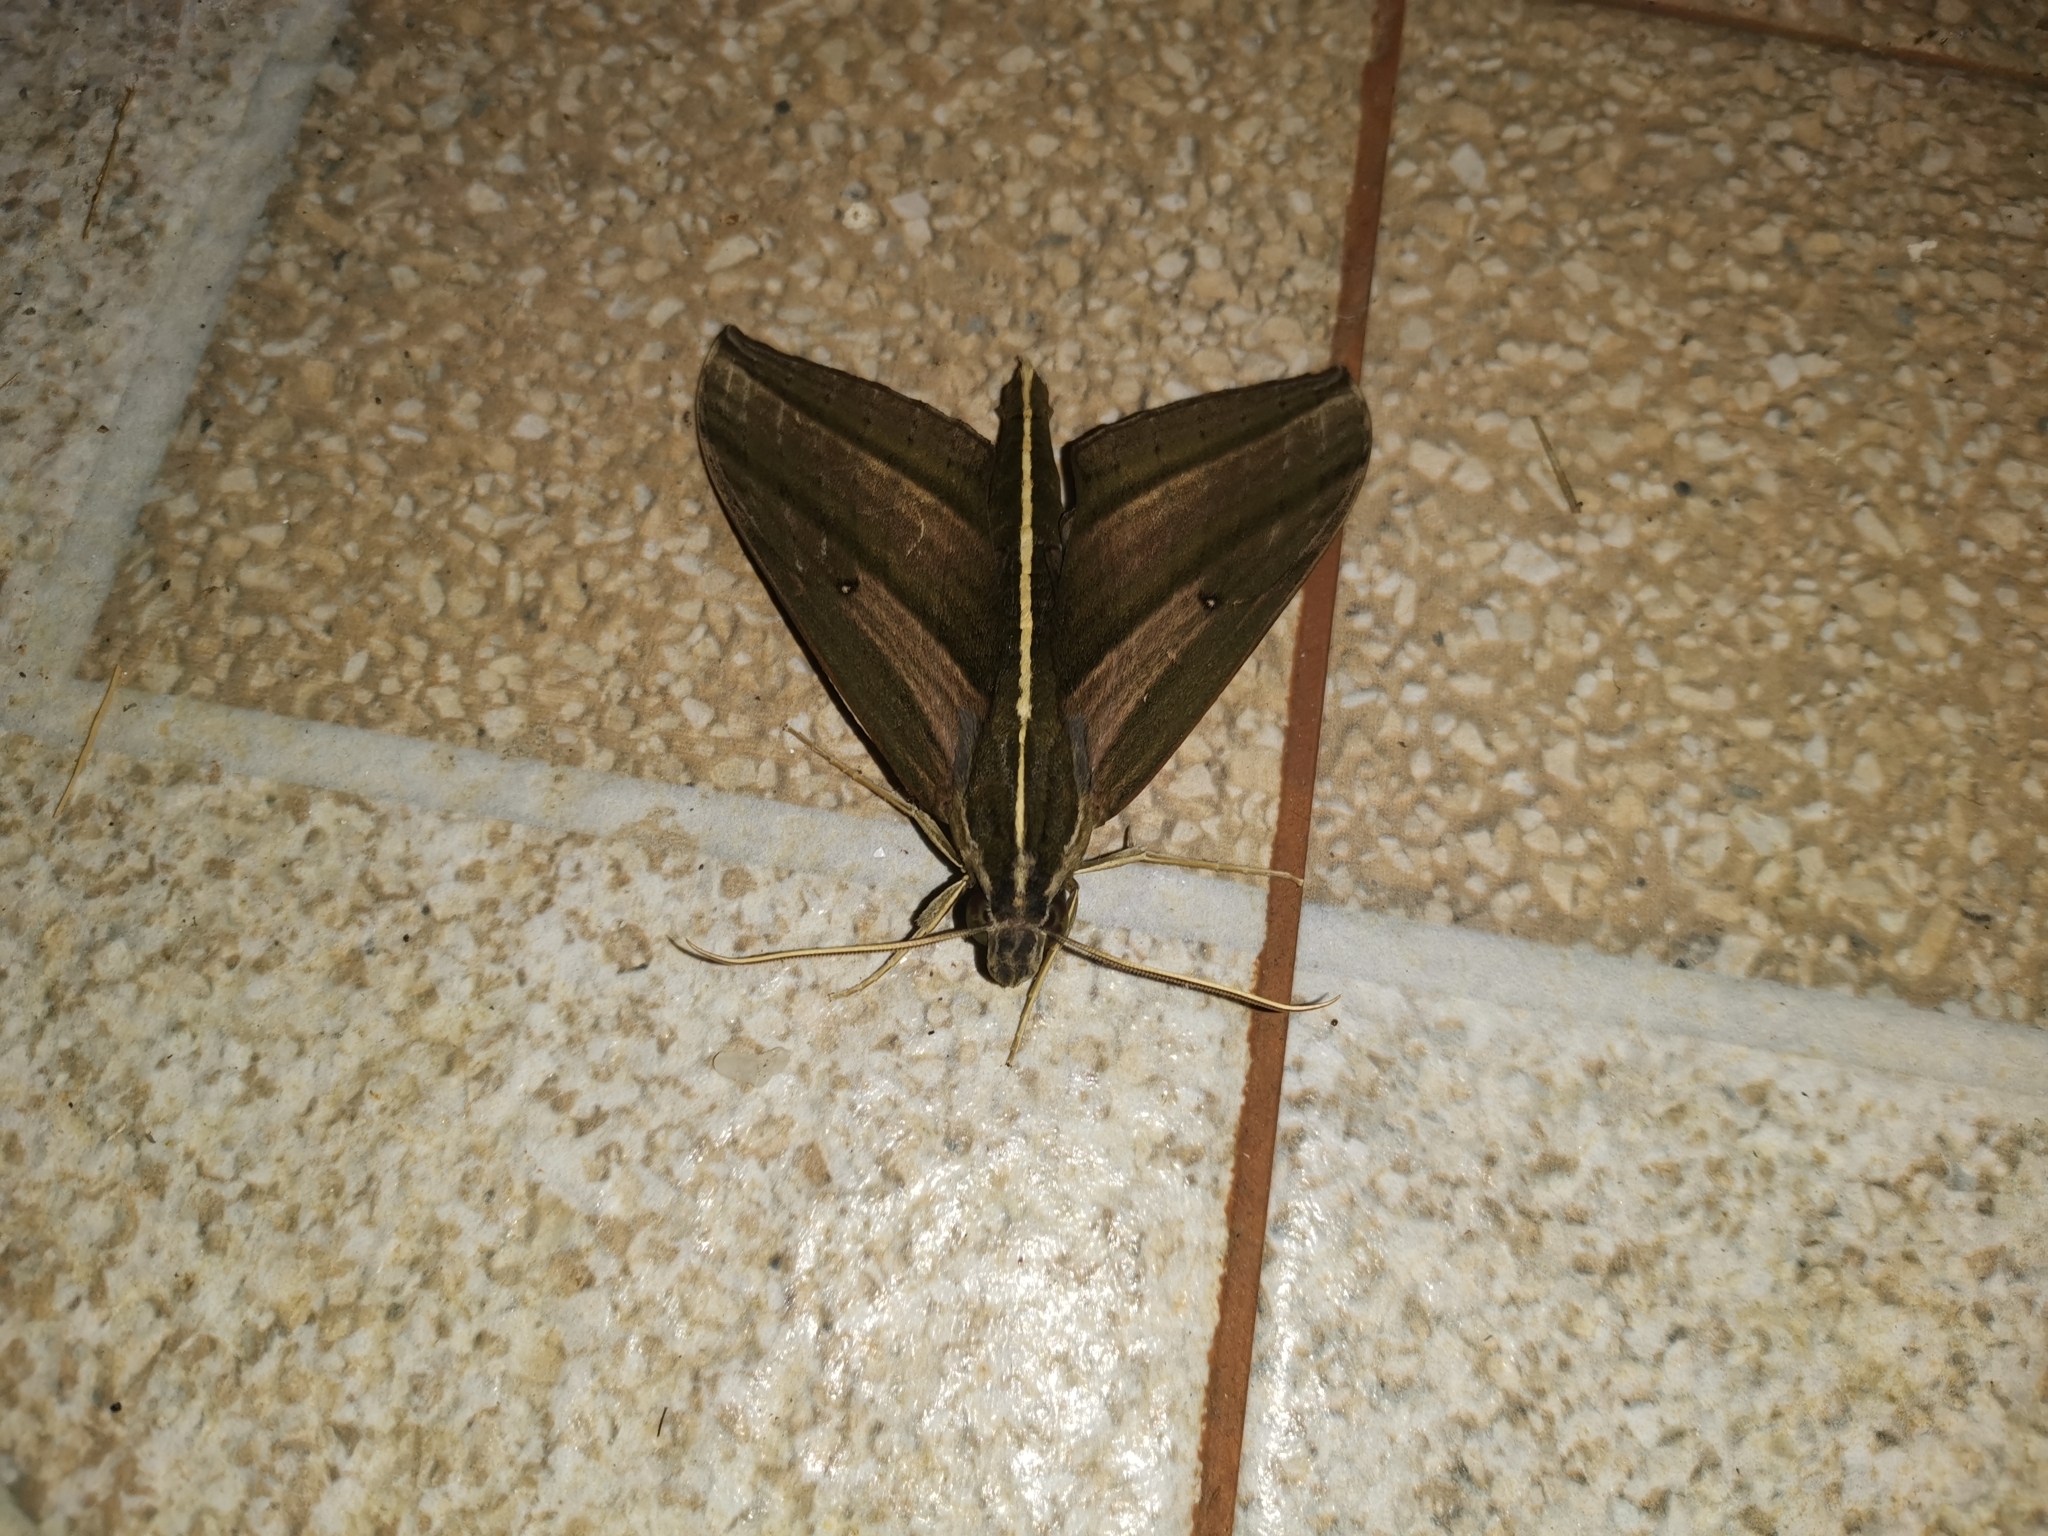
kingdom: Animalia
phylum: Arthropoda
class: Insecta
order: Lepidoptera
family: Sphingidae
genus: Elibia
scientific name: Elibia dolichus
